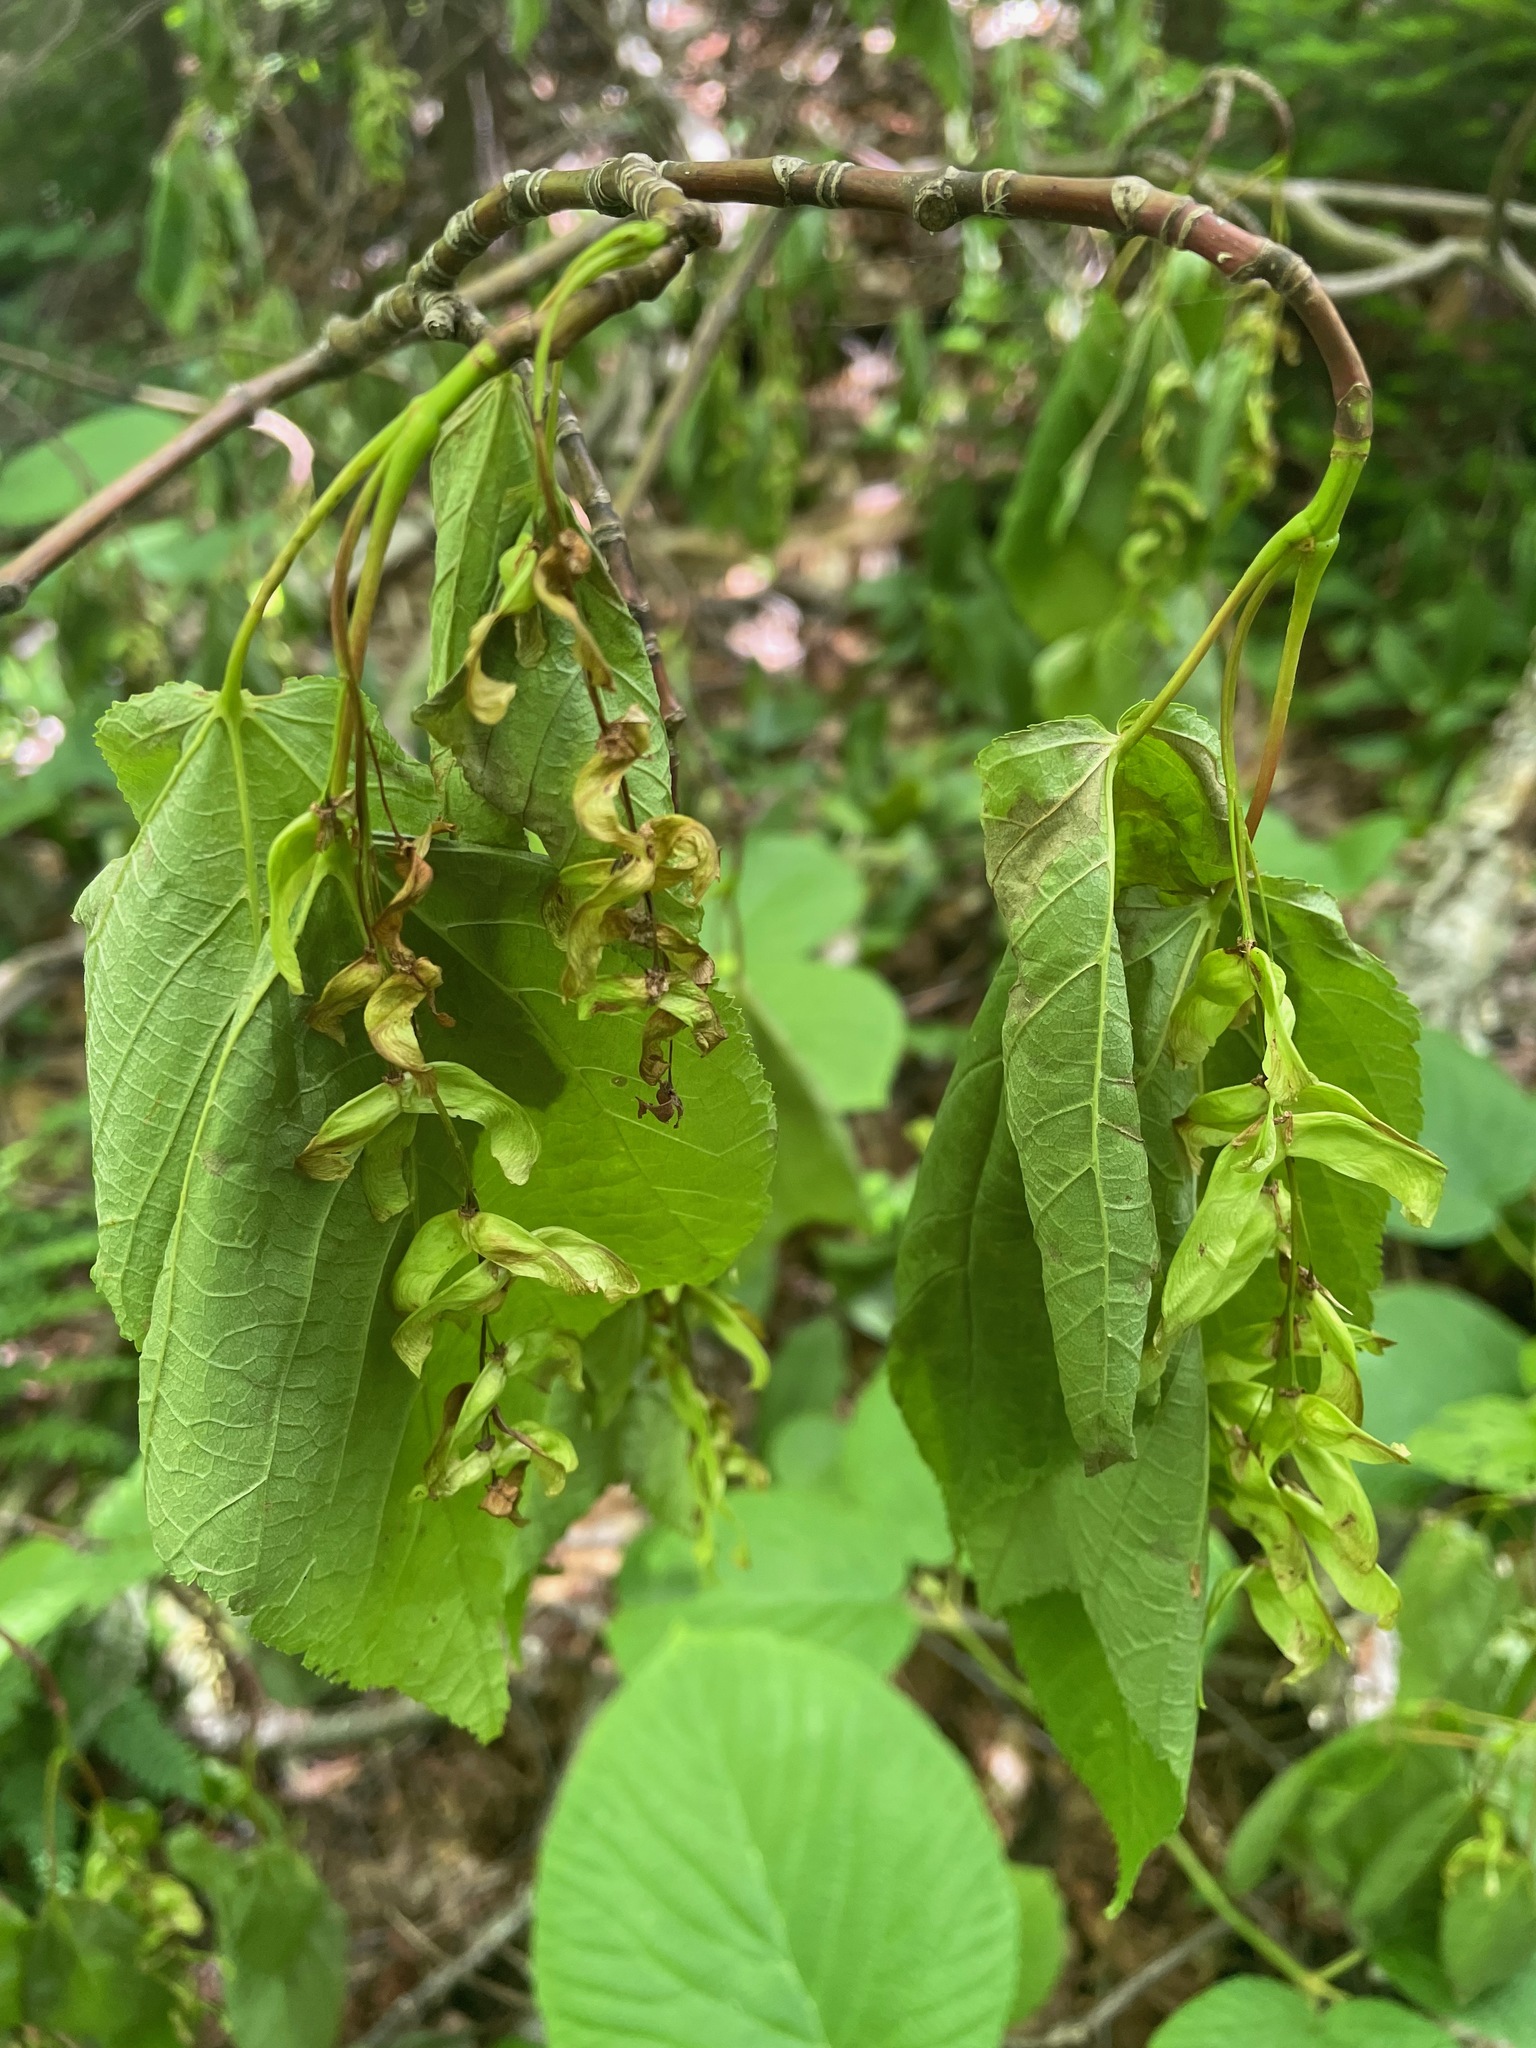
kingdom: Plantae
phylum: Tracheophyta
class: Magnoliopsida
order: Sapindales
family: Sapindaceae
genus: Acer
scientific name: Acer pensylvanicum
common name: Moosewood
